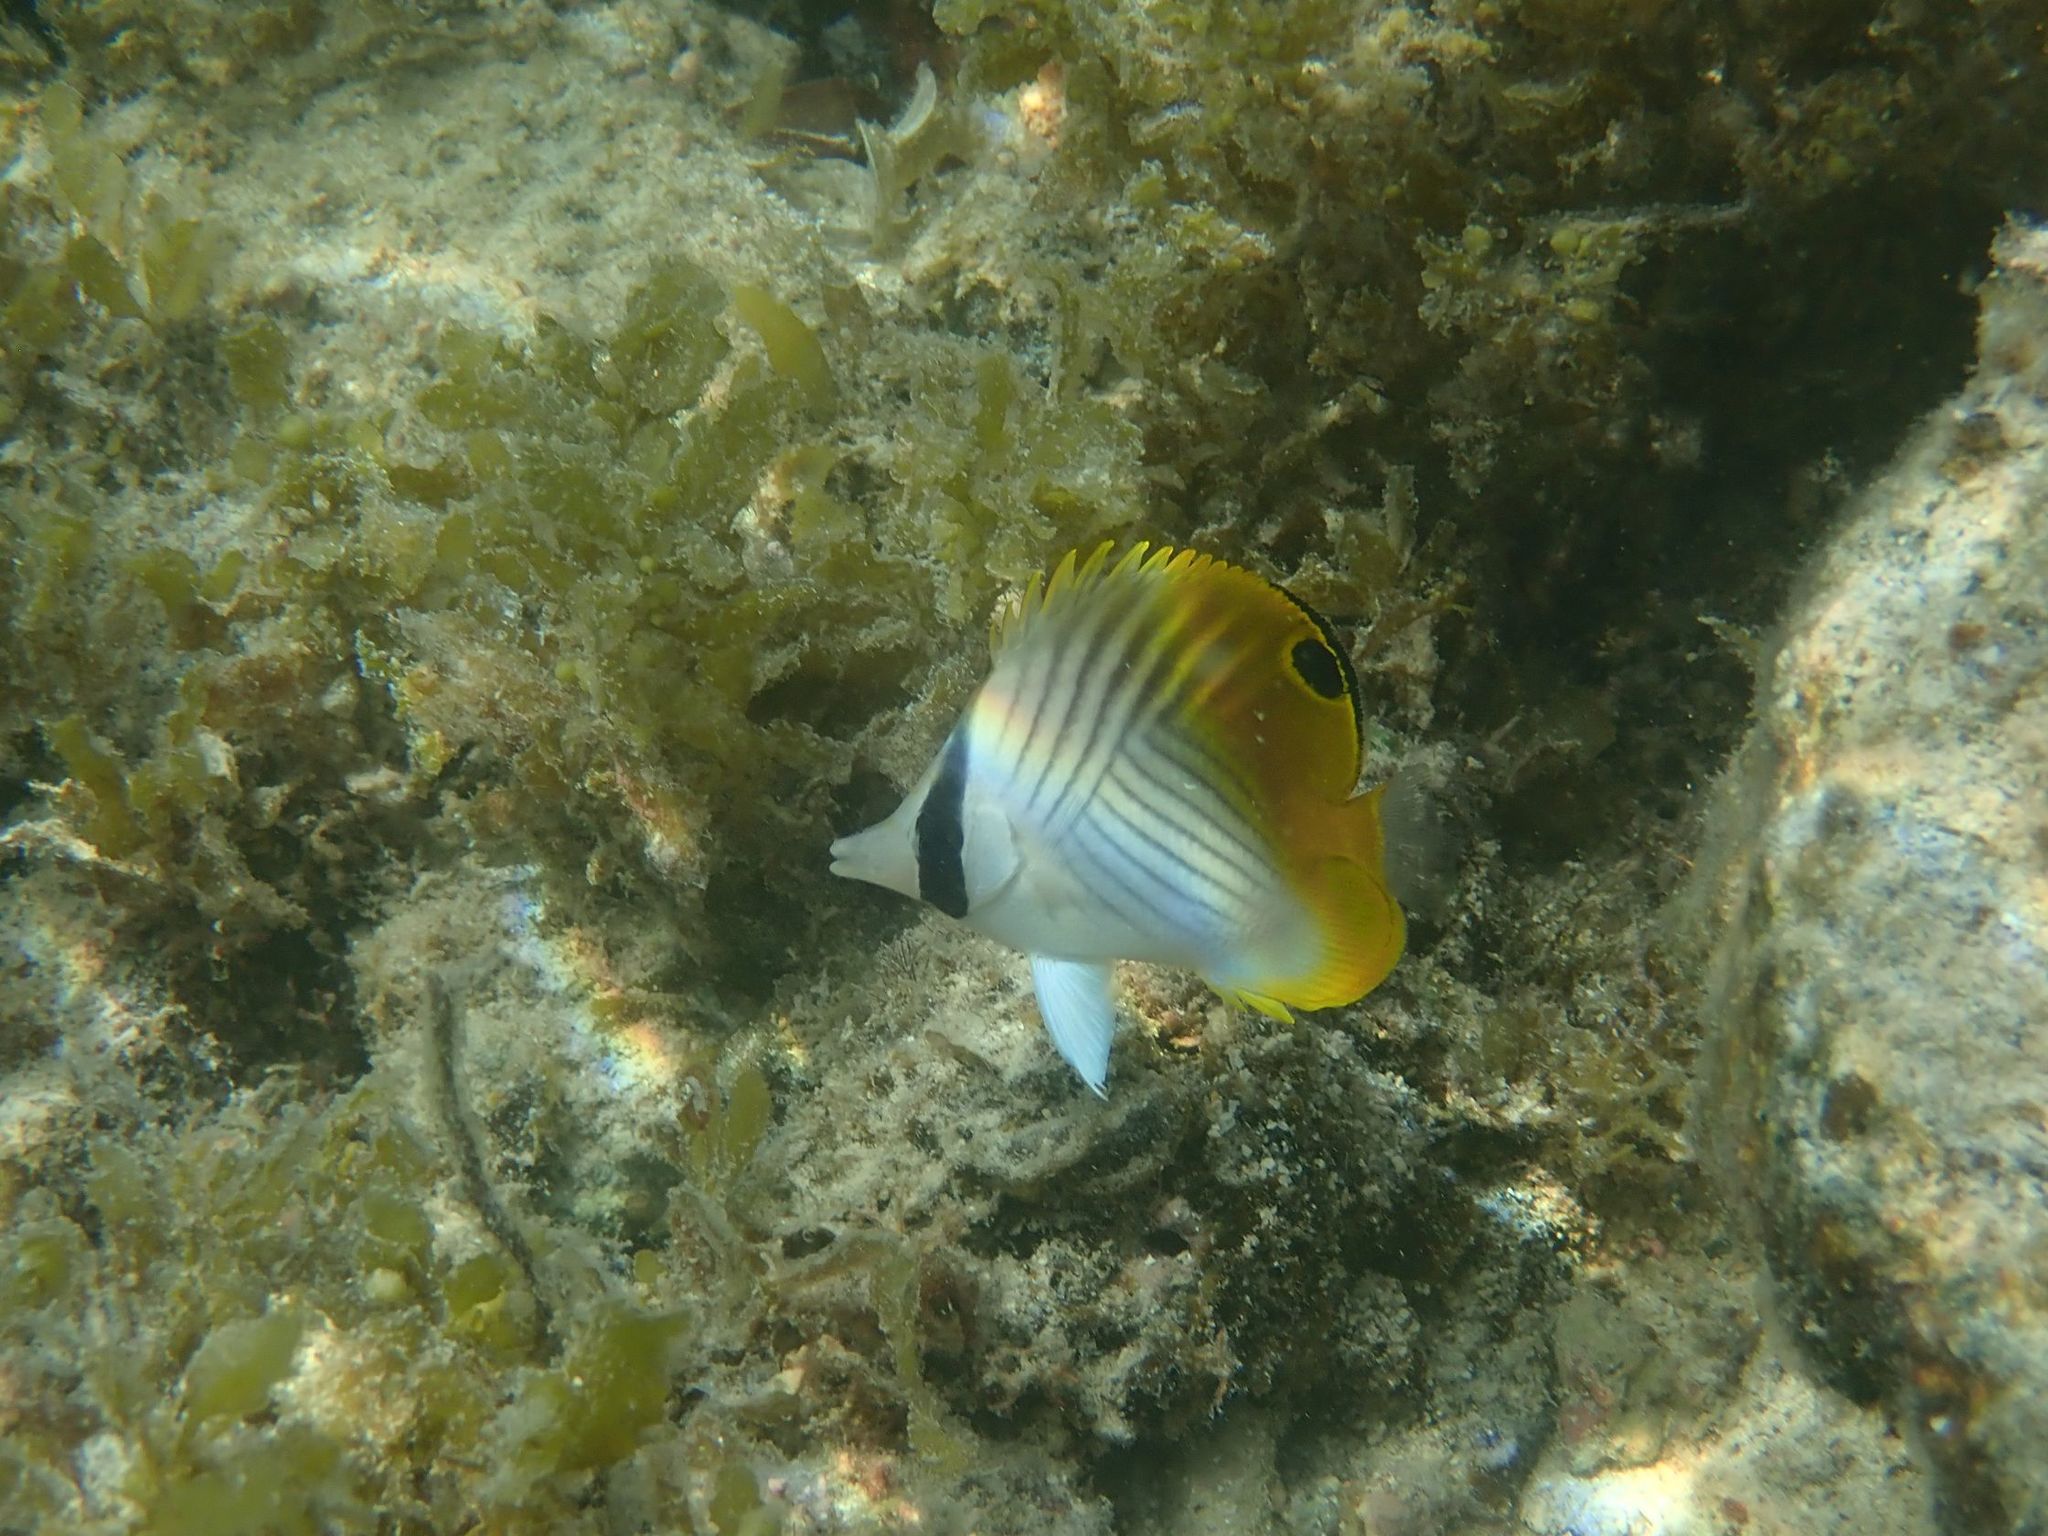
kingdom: Animalia
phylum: Chordata
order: Perciformes
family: Chaetodontidae
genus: Chaetodon
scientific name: Chaetodon auriga
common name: Threadfin butterflyfish
